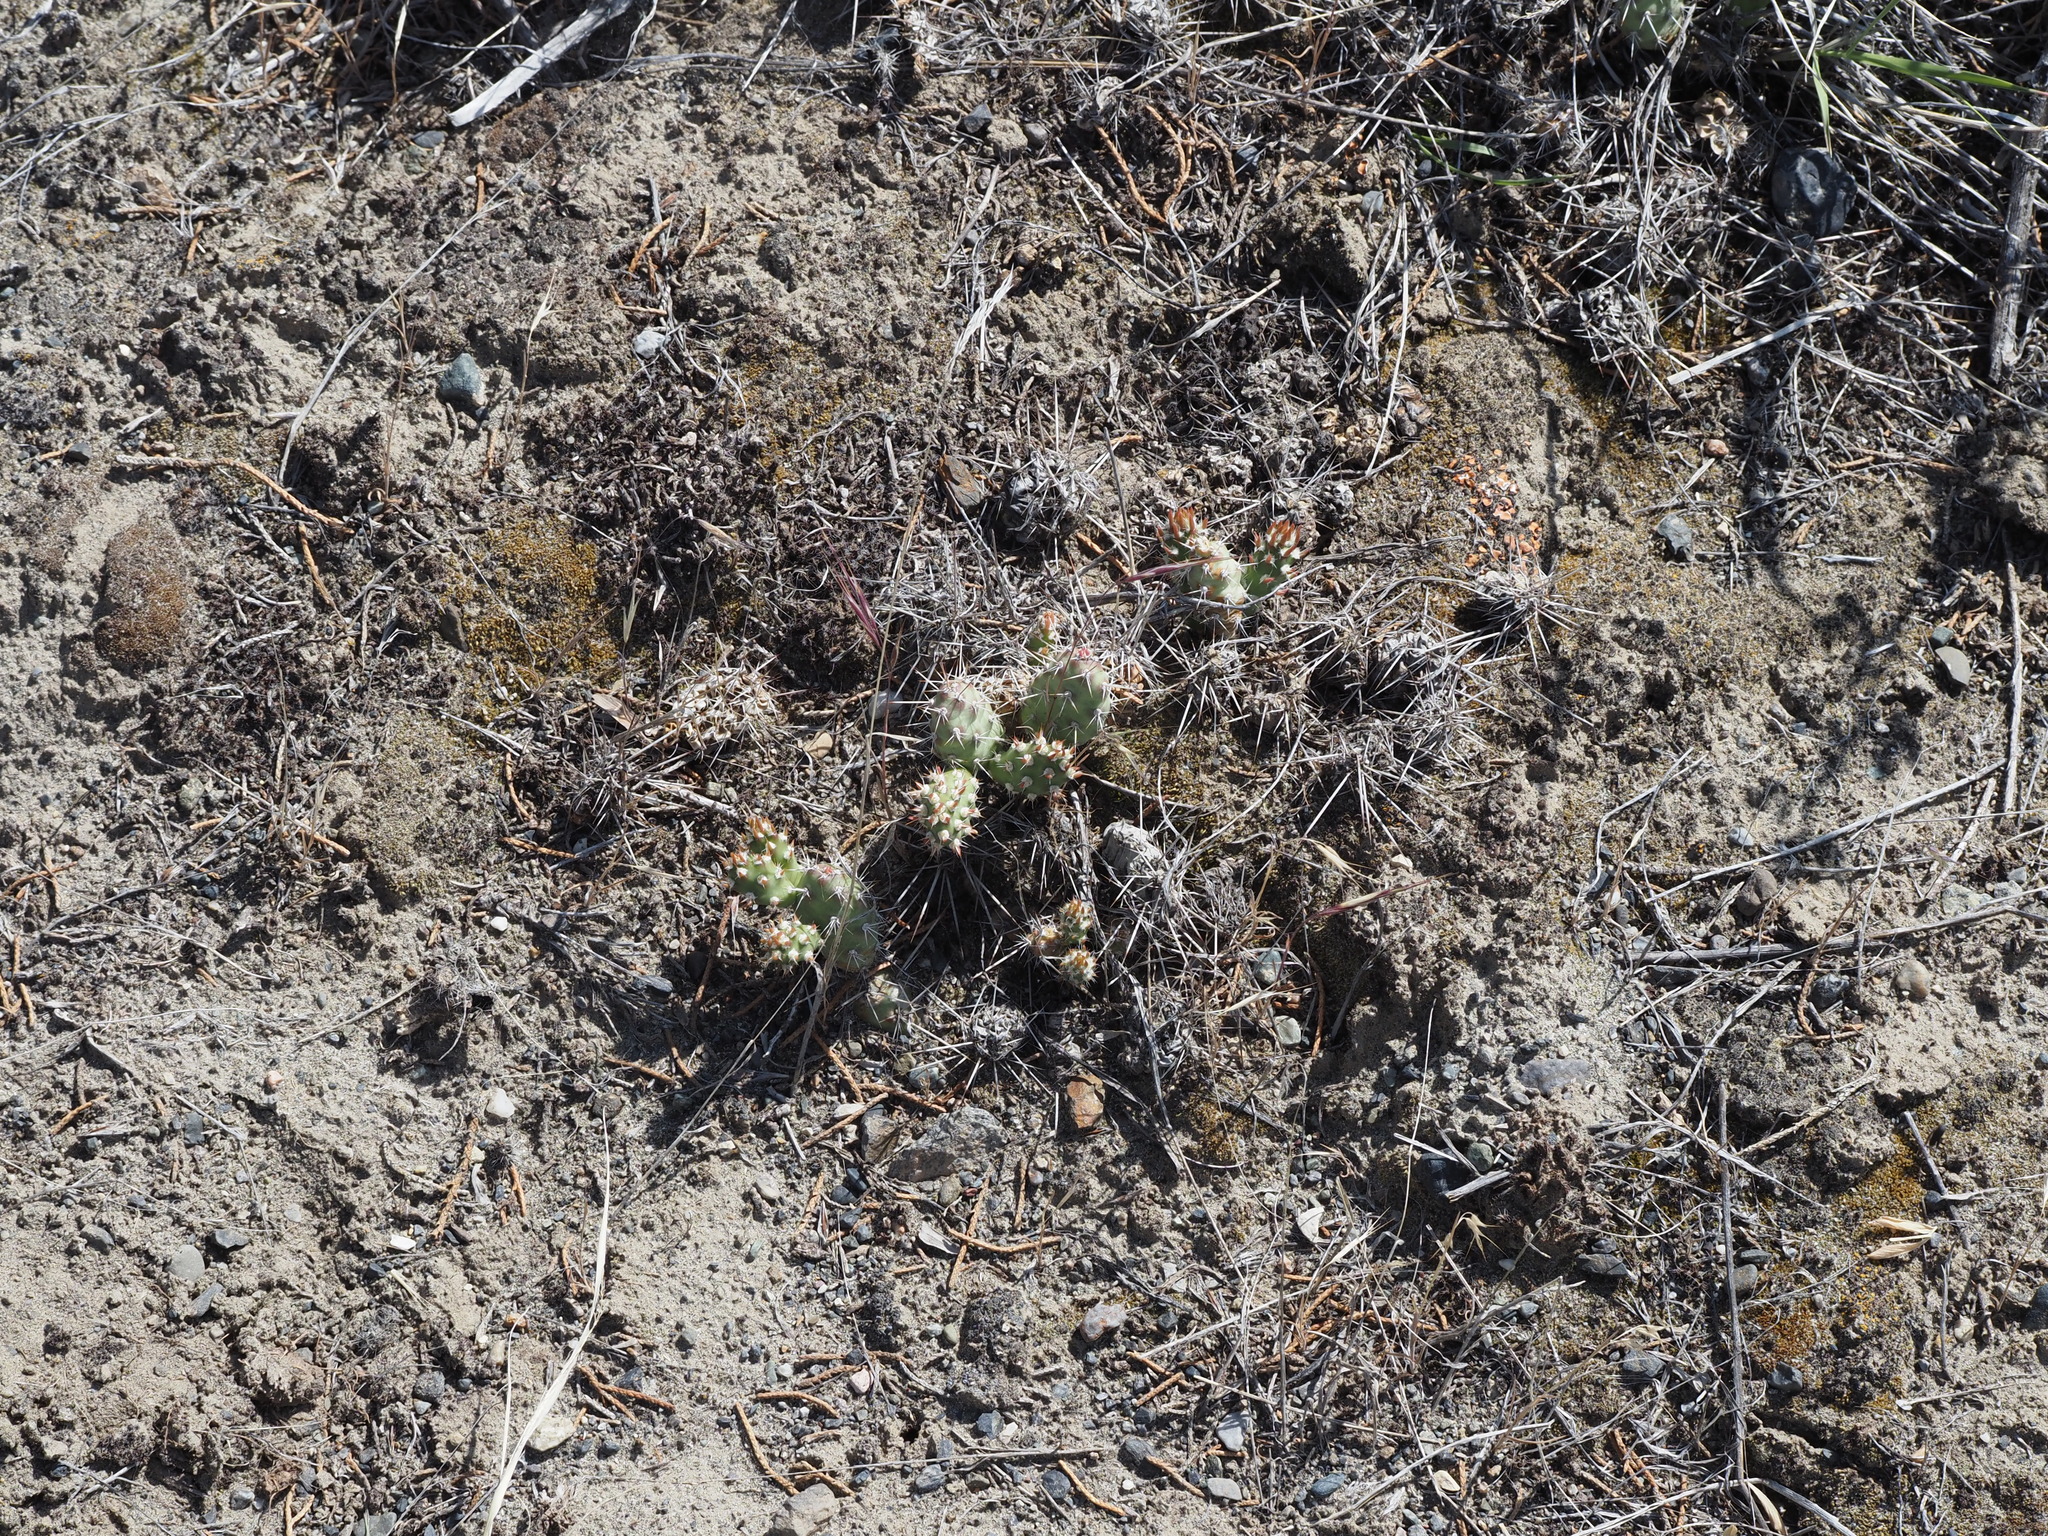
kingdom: Plantae
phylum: Tracheophyta
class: Magnoliopsida
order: Caryophyllales
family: Cactaceae
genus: Opuntia
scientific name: Opuntia fragilis
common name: Brittle cactus
